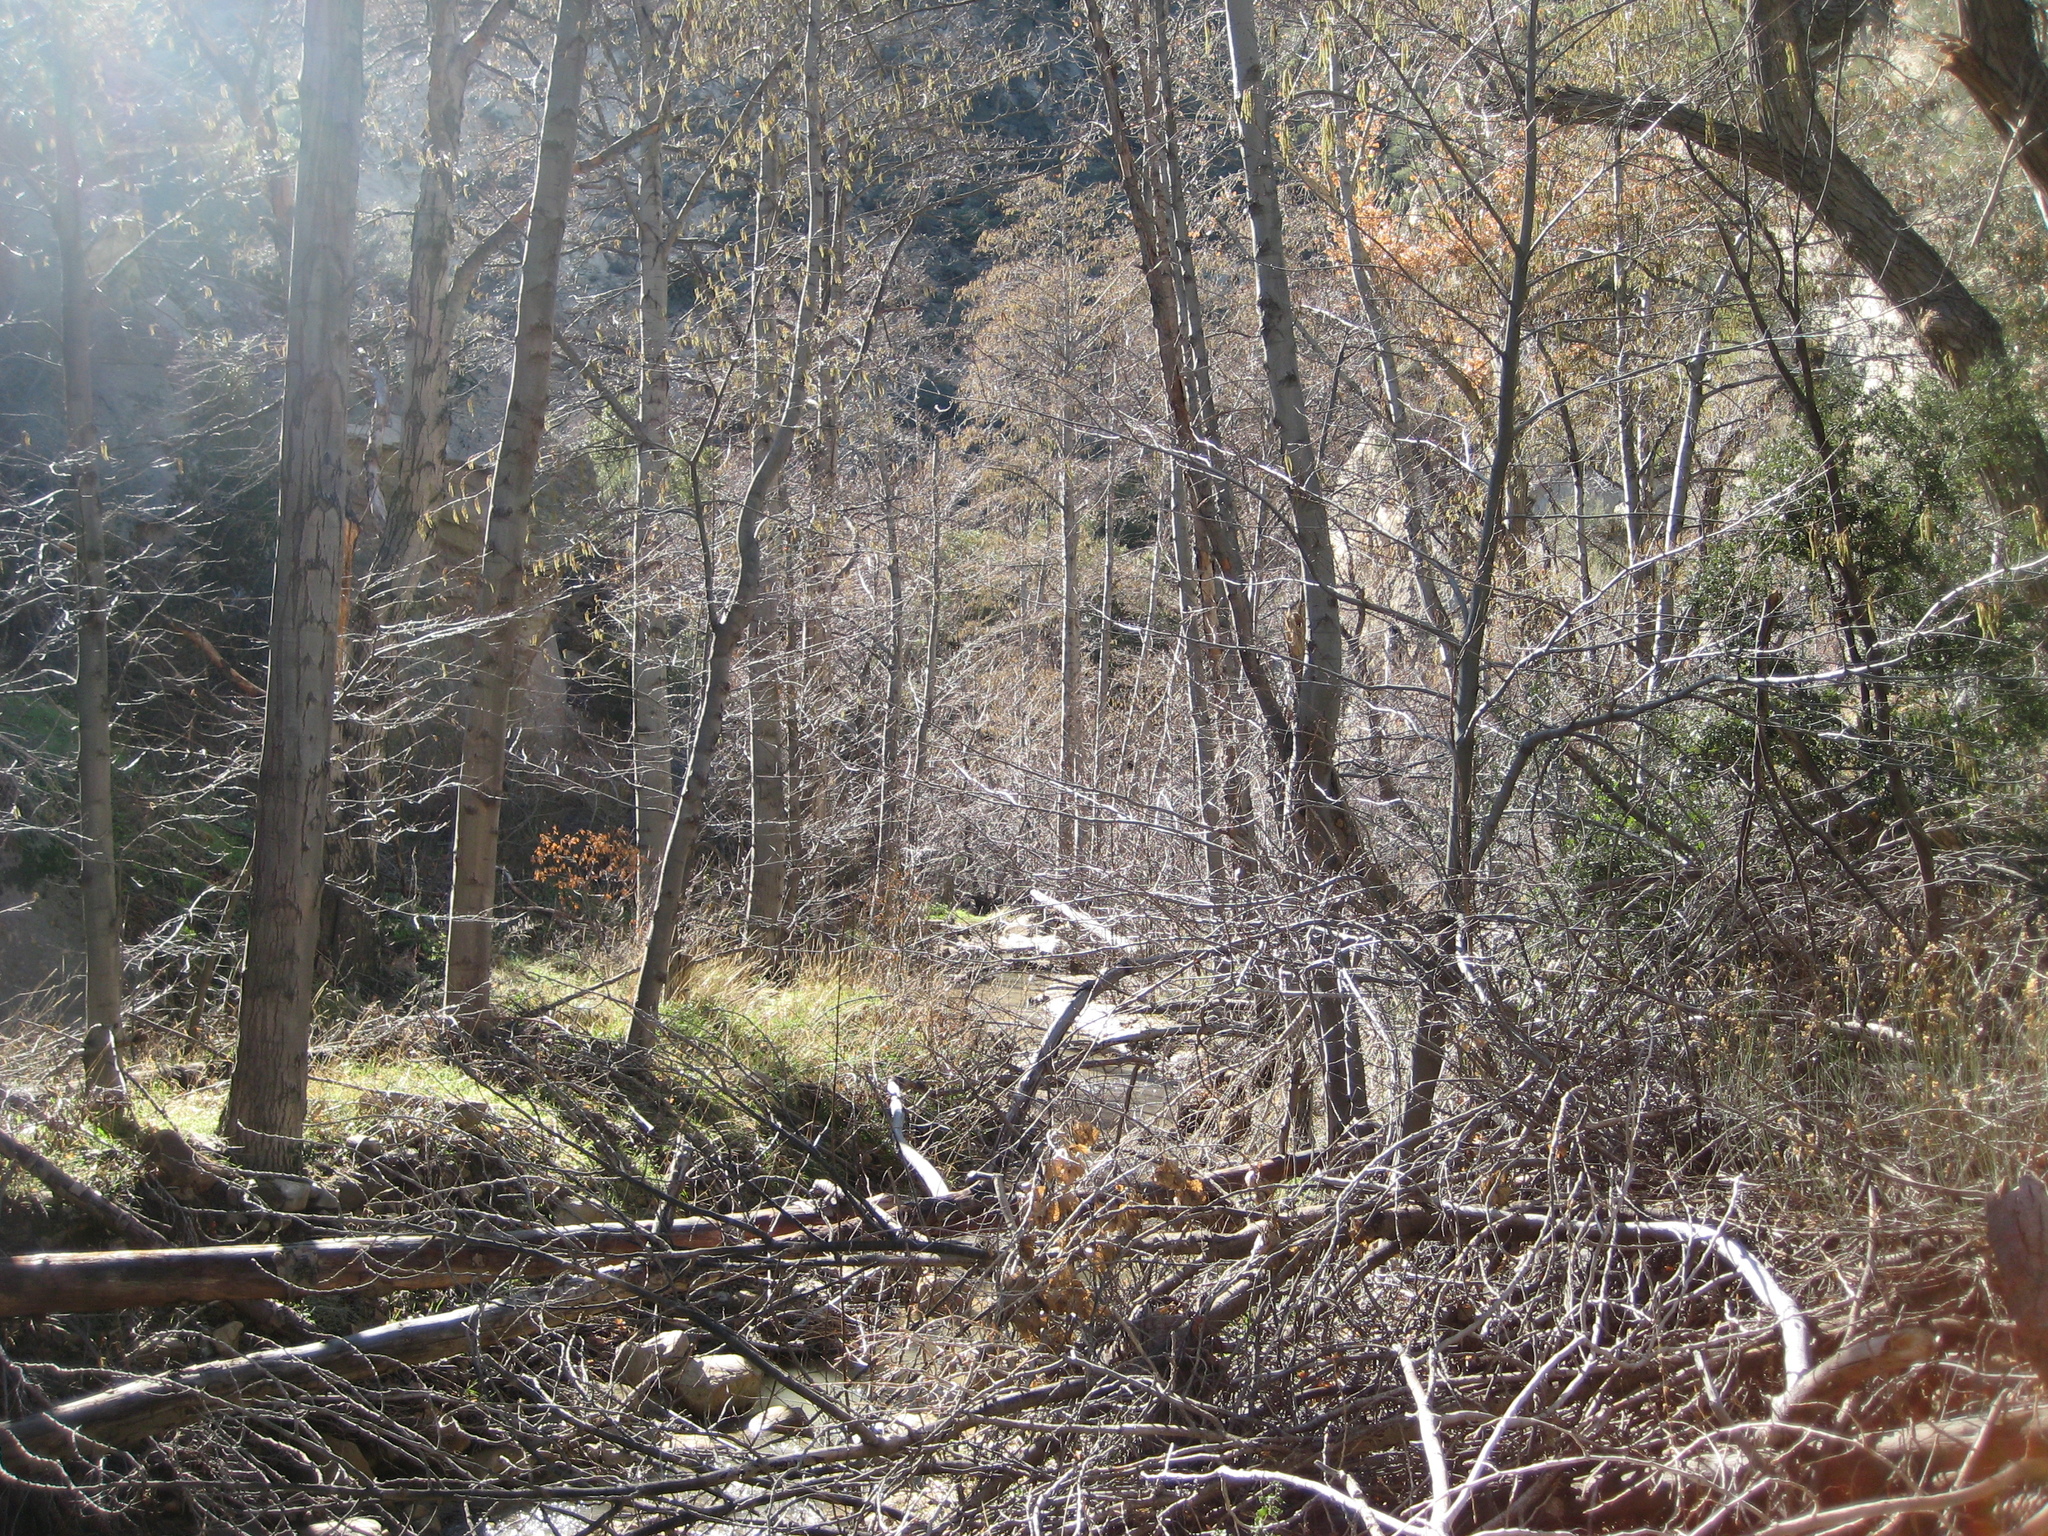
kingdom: Plantae
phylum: Tracheophyta
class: Magnoliopsida
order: Fagales
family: Betulaceae
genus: Alnus
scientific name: Alnus rhombifolia
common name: California alder
